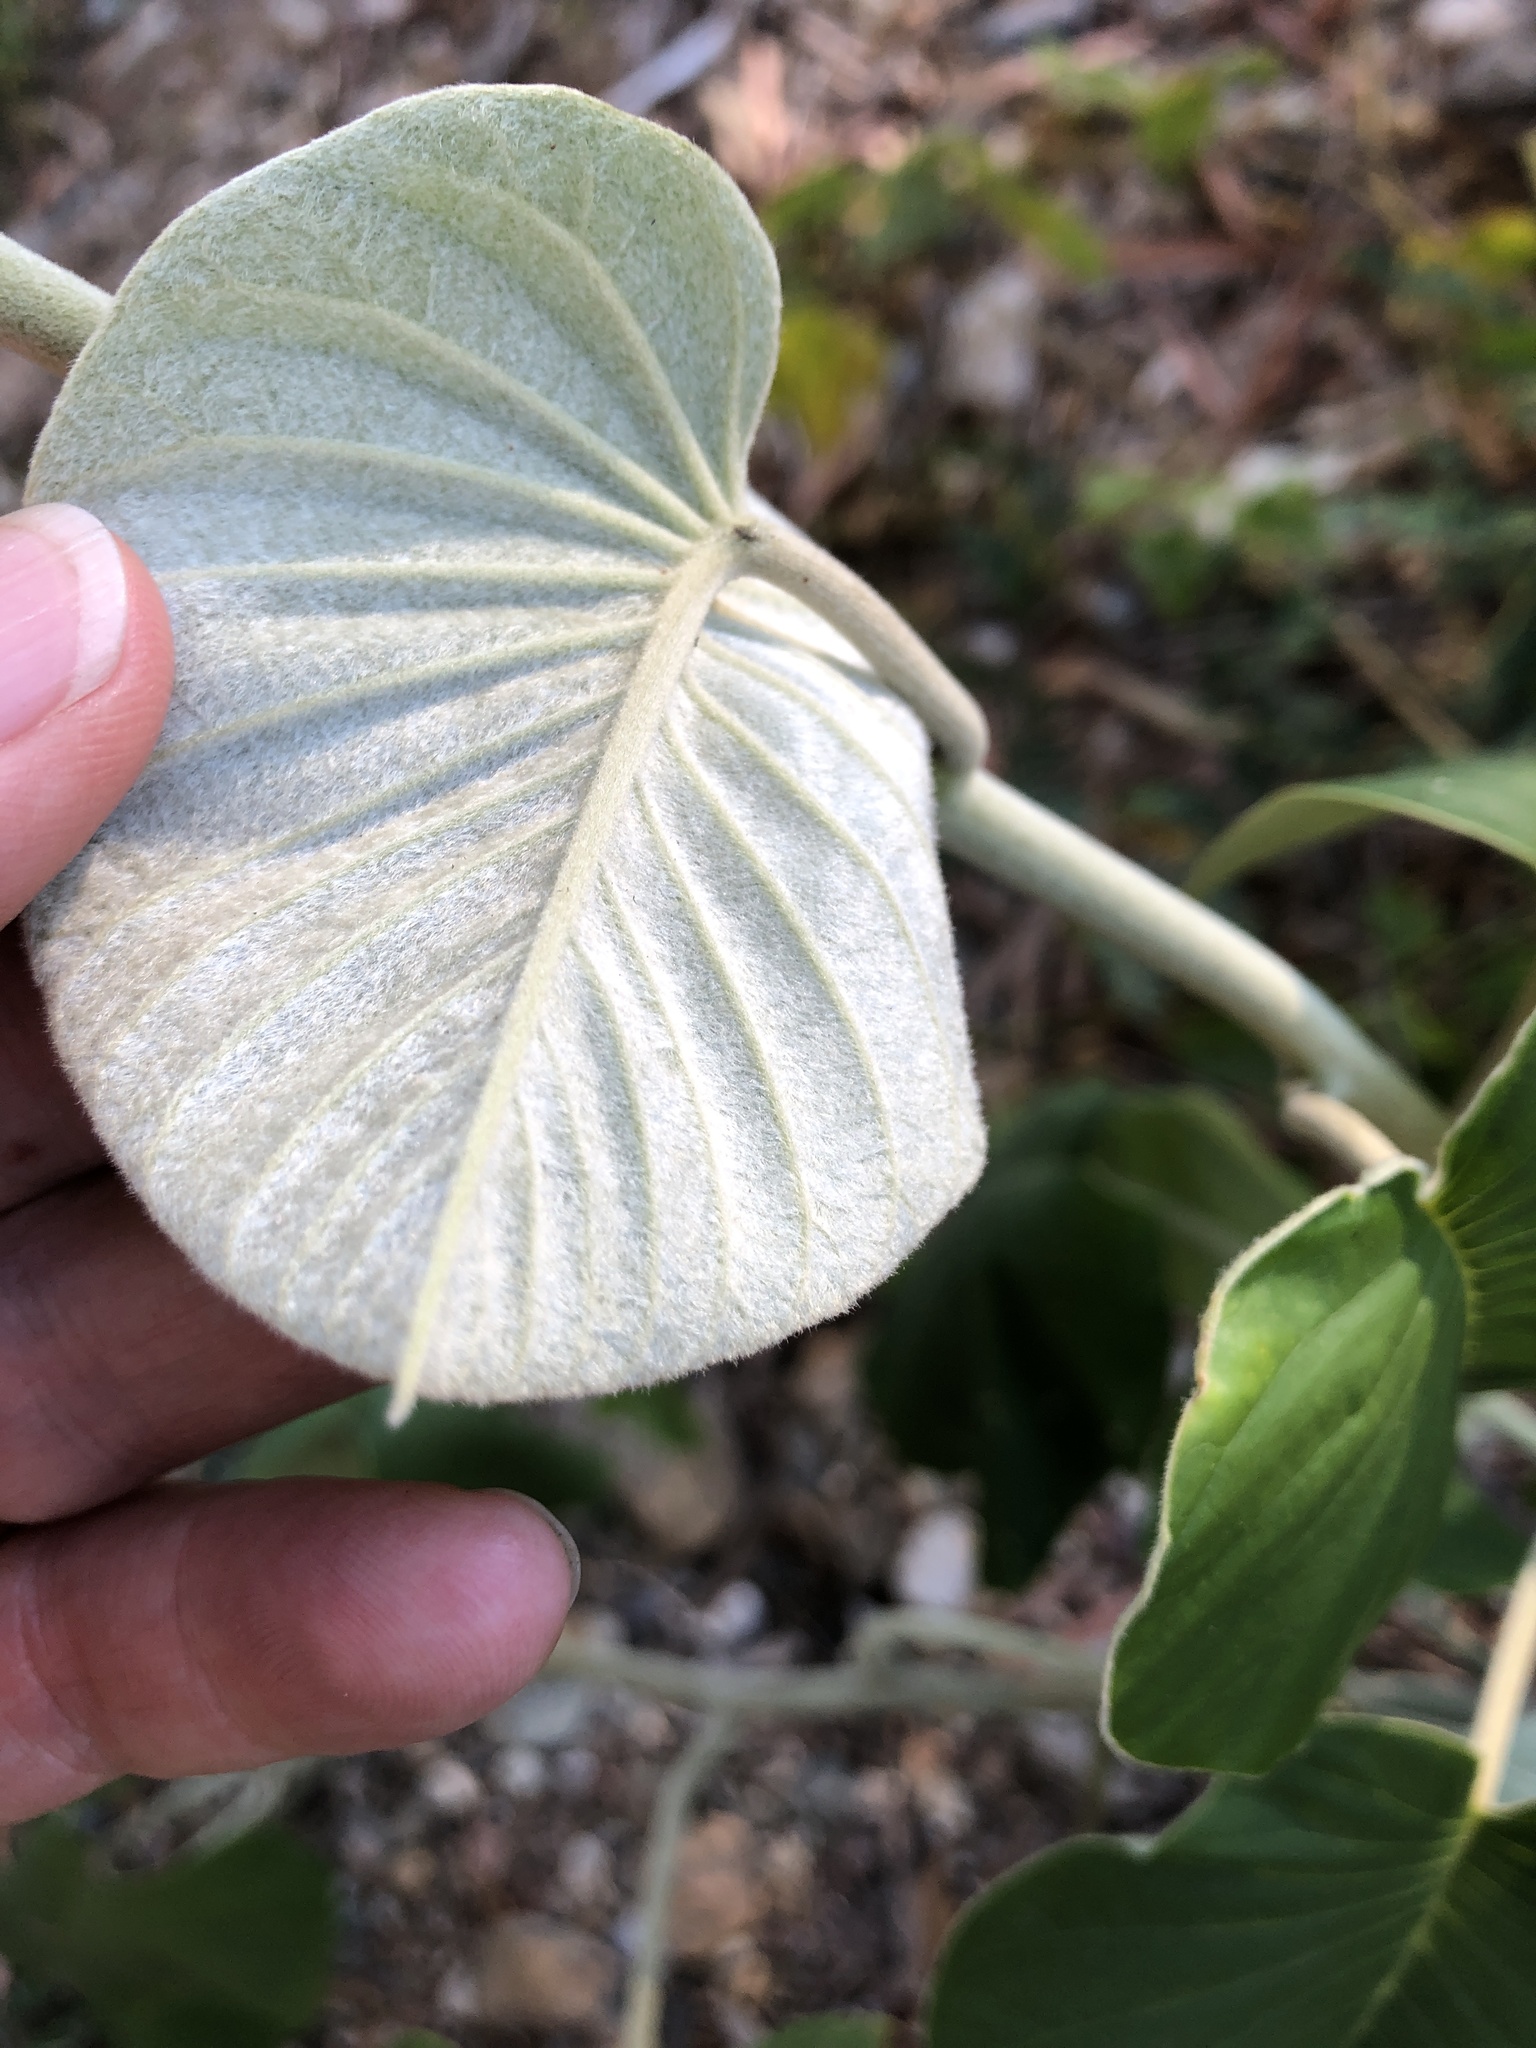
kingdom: Plantae
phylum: Tracheophyta
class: Magnoliopsida
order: Solanales
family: Convolvulaceae
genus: Argyreia
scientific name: Argyreia nervosa
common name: Elephant creeper
